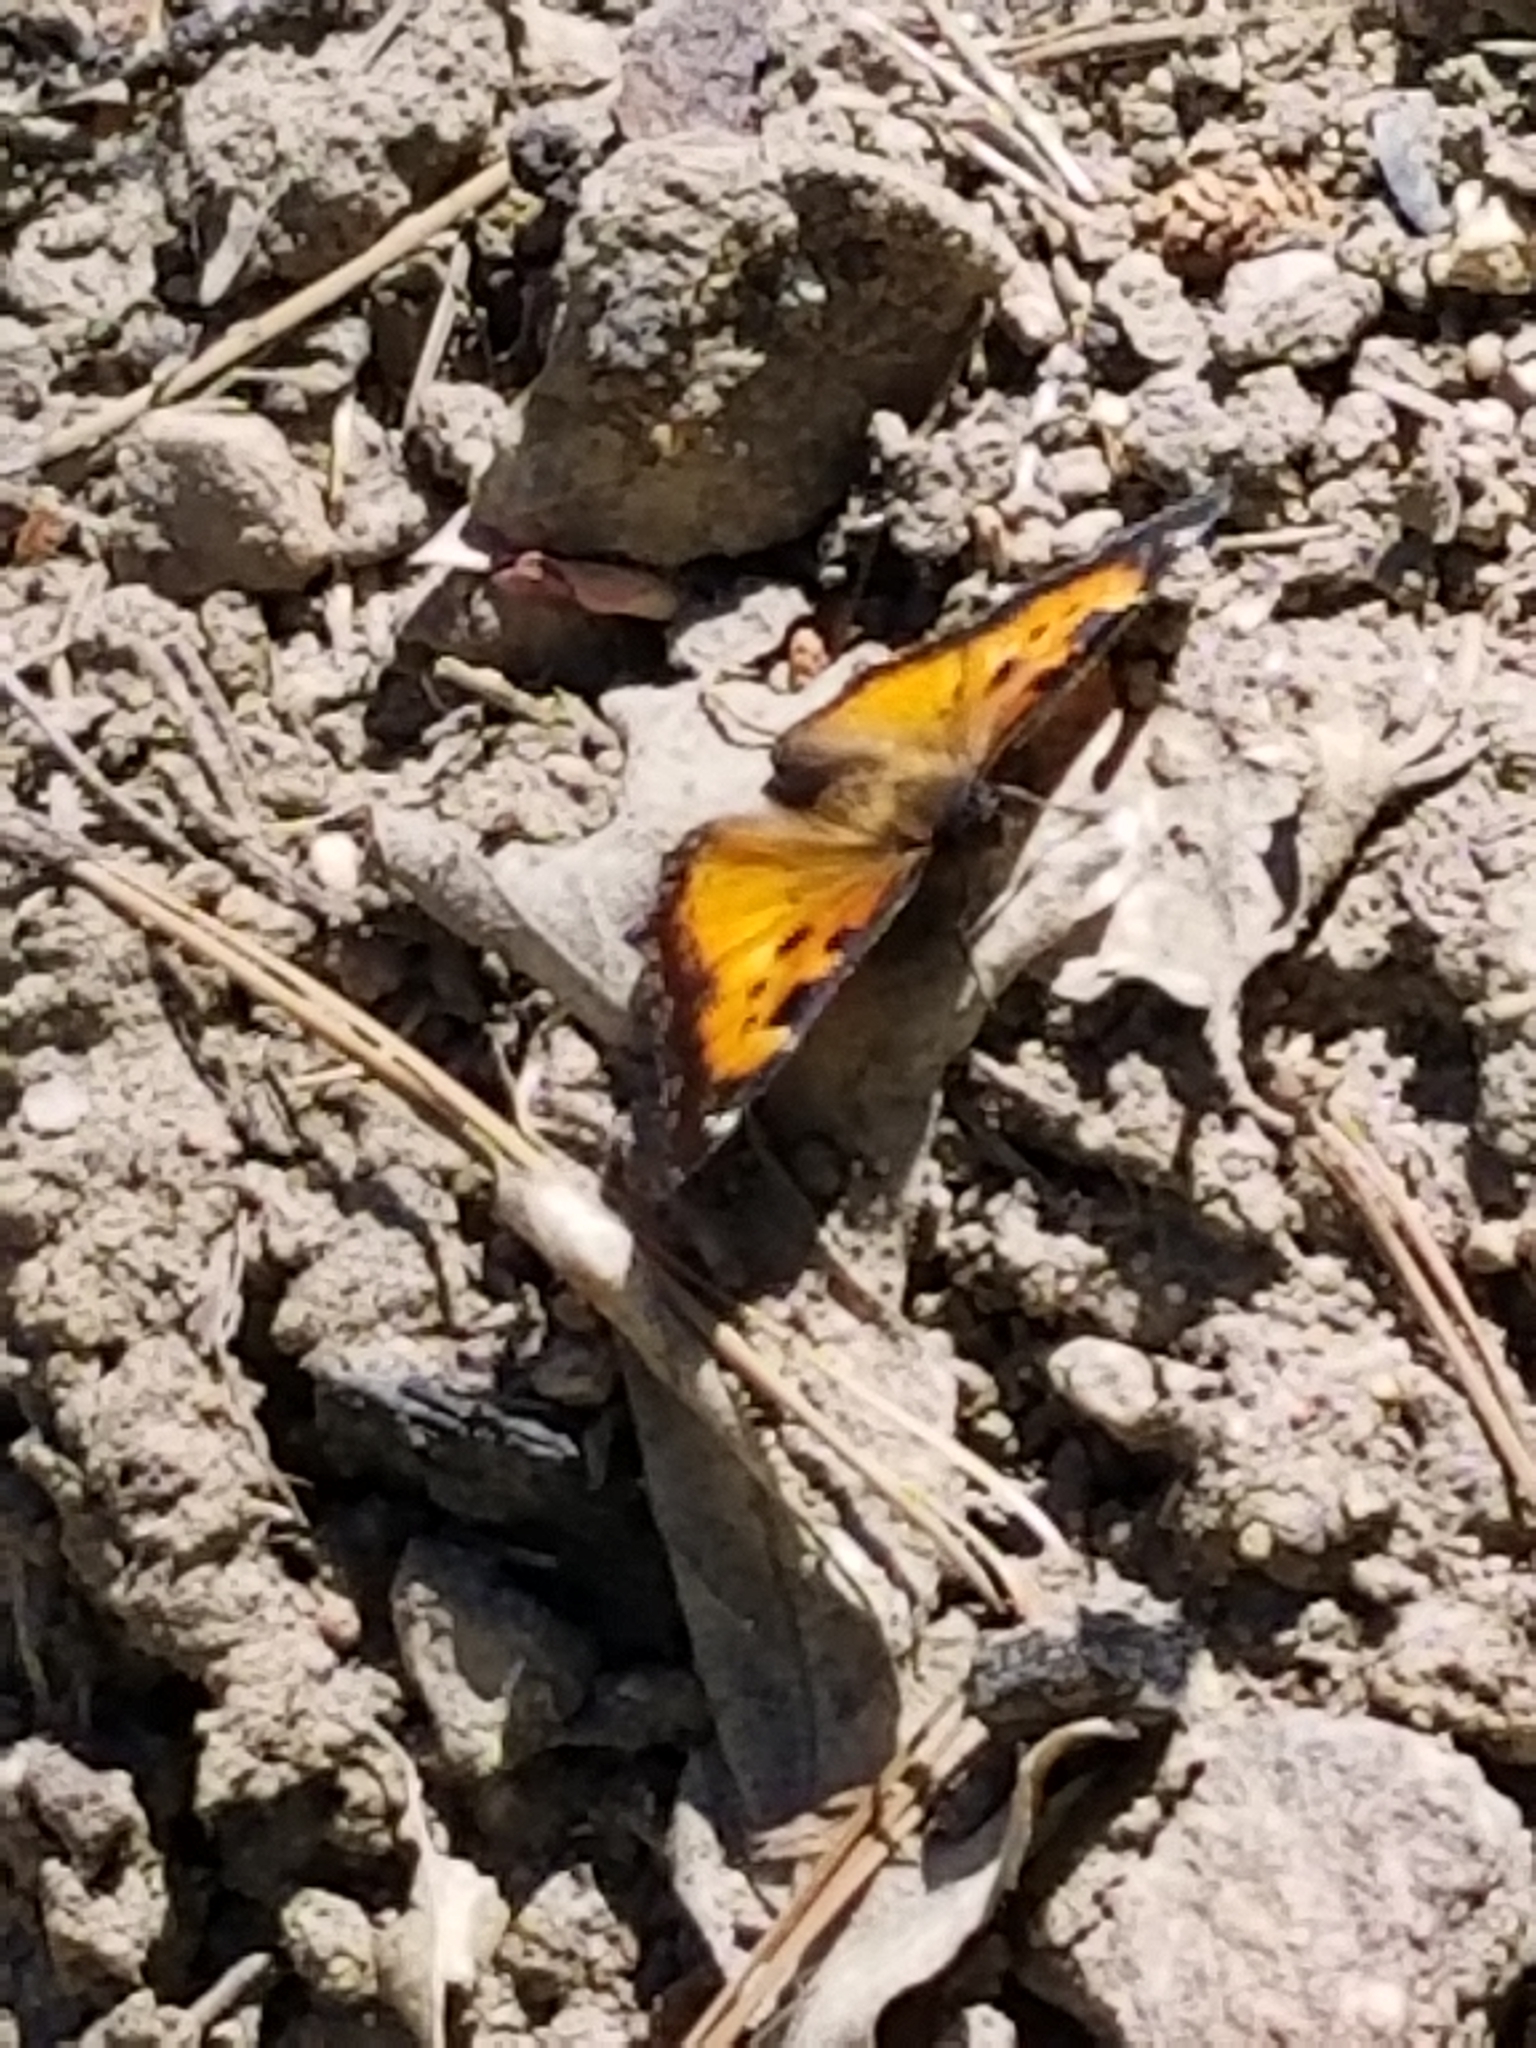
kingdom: Animalia
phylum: Arthropoda
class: Insecta
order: Lepidoptera
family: Nymphalidae
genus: Nymphalis
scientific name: Nymphalis californica
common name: California tortoiseshell
